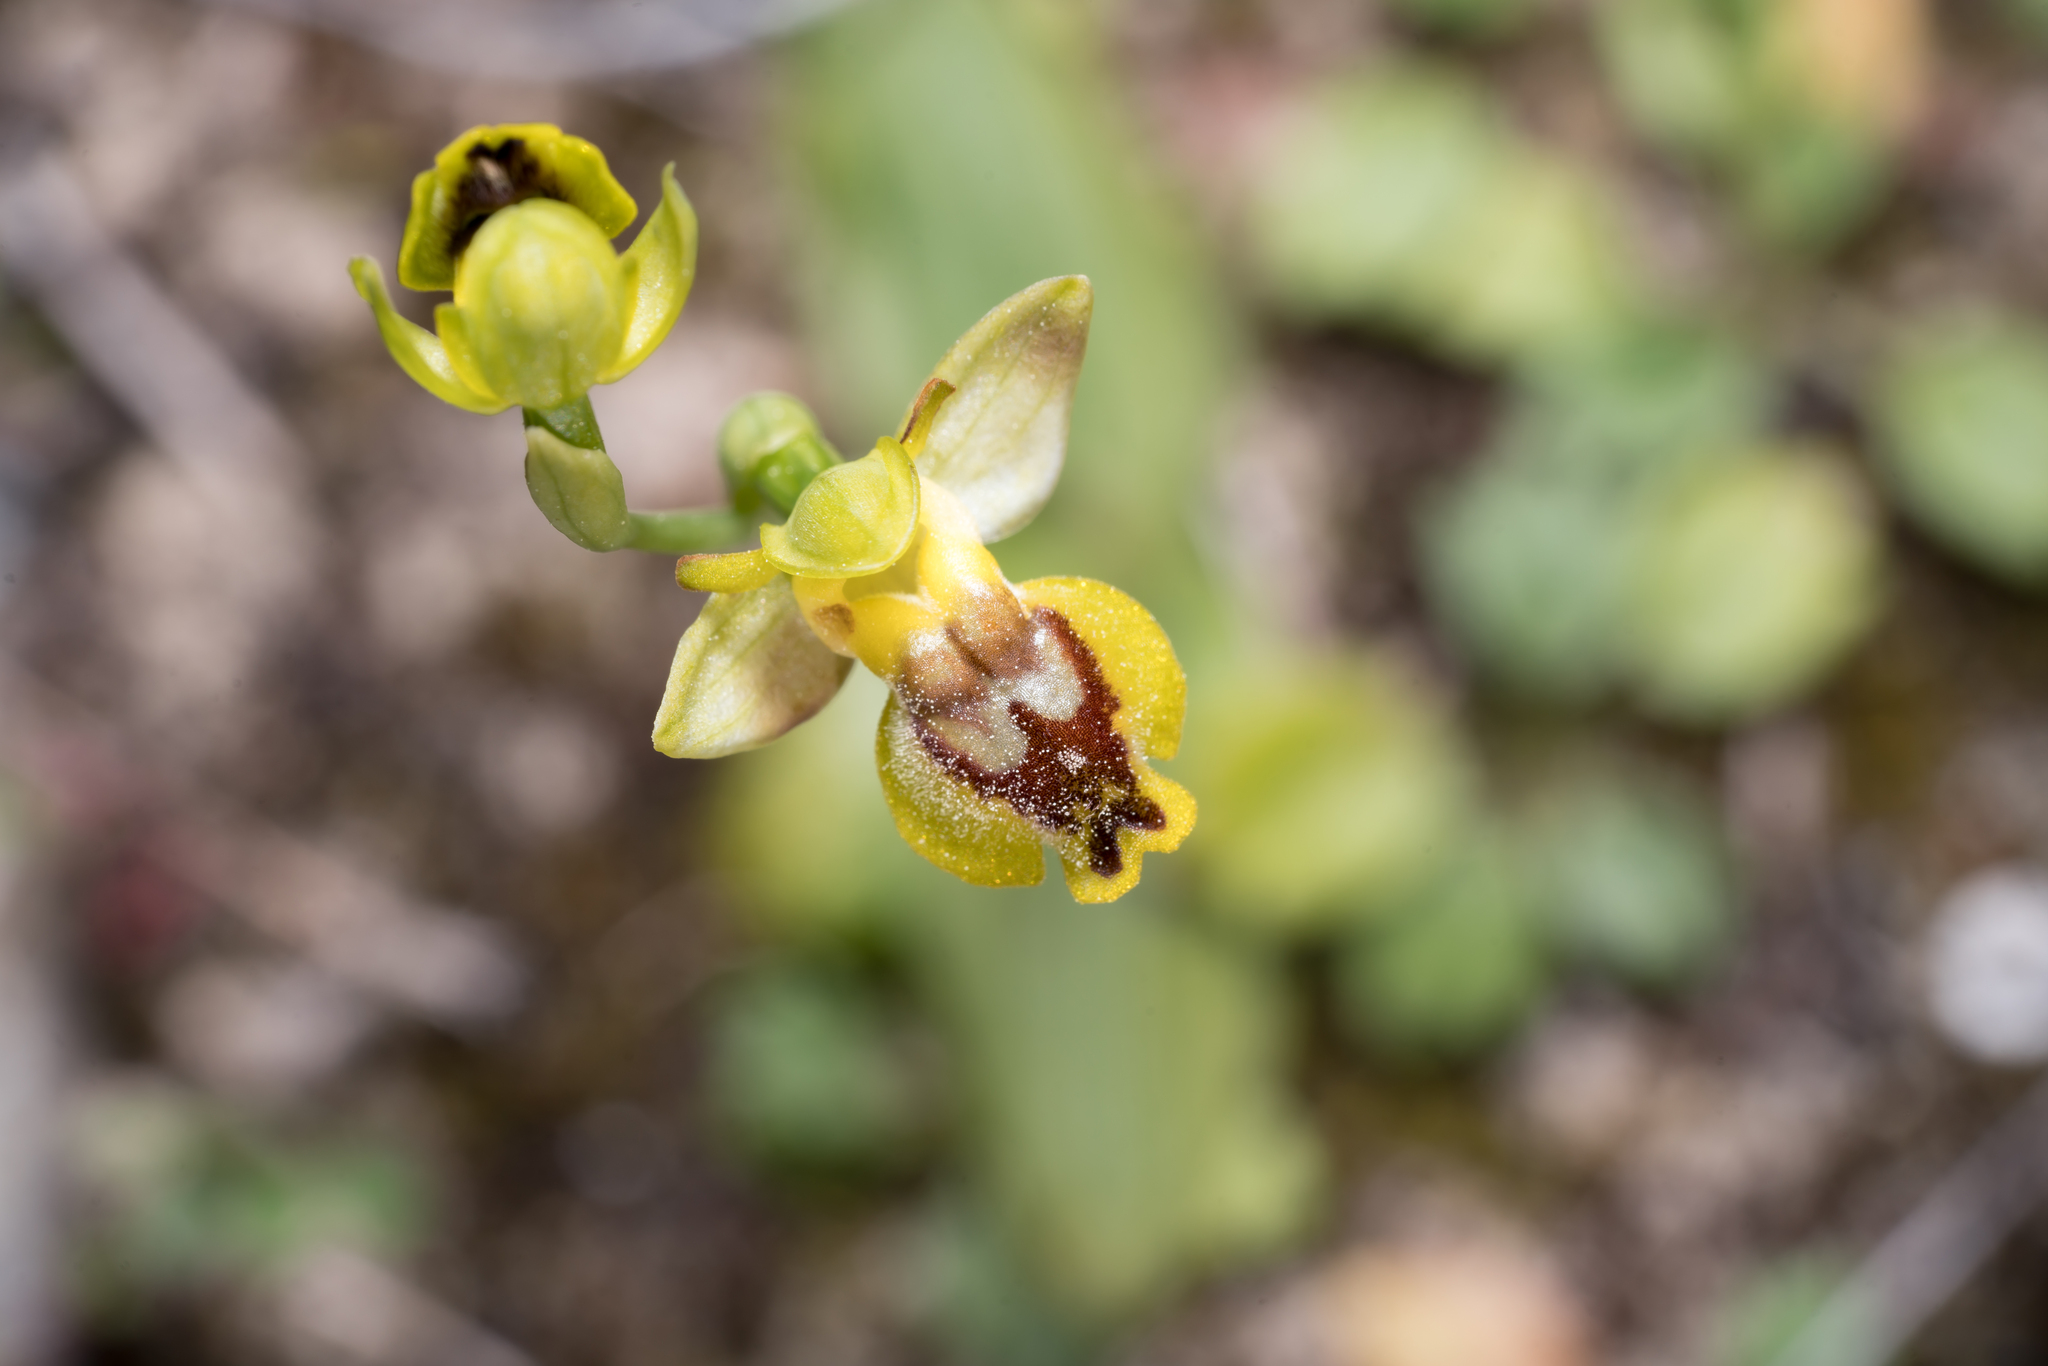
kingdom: Plantae
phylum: Tracheophyta
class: Liliopsida
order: Asparagales
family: Orchidaceae
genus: Ophrys
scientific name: Ophrys lutea
